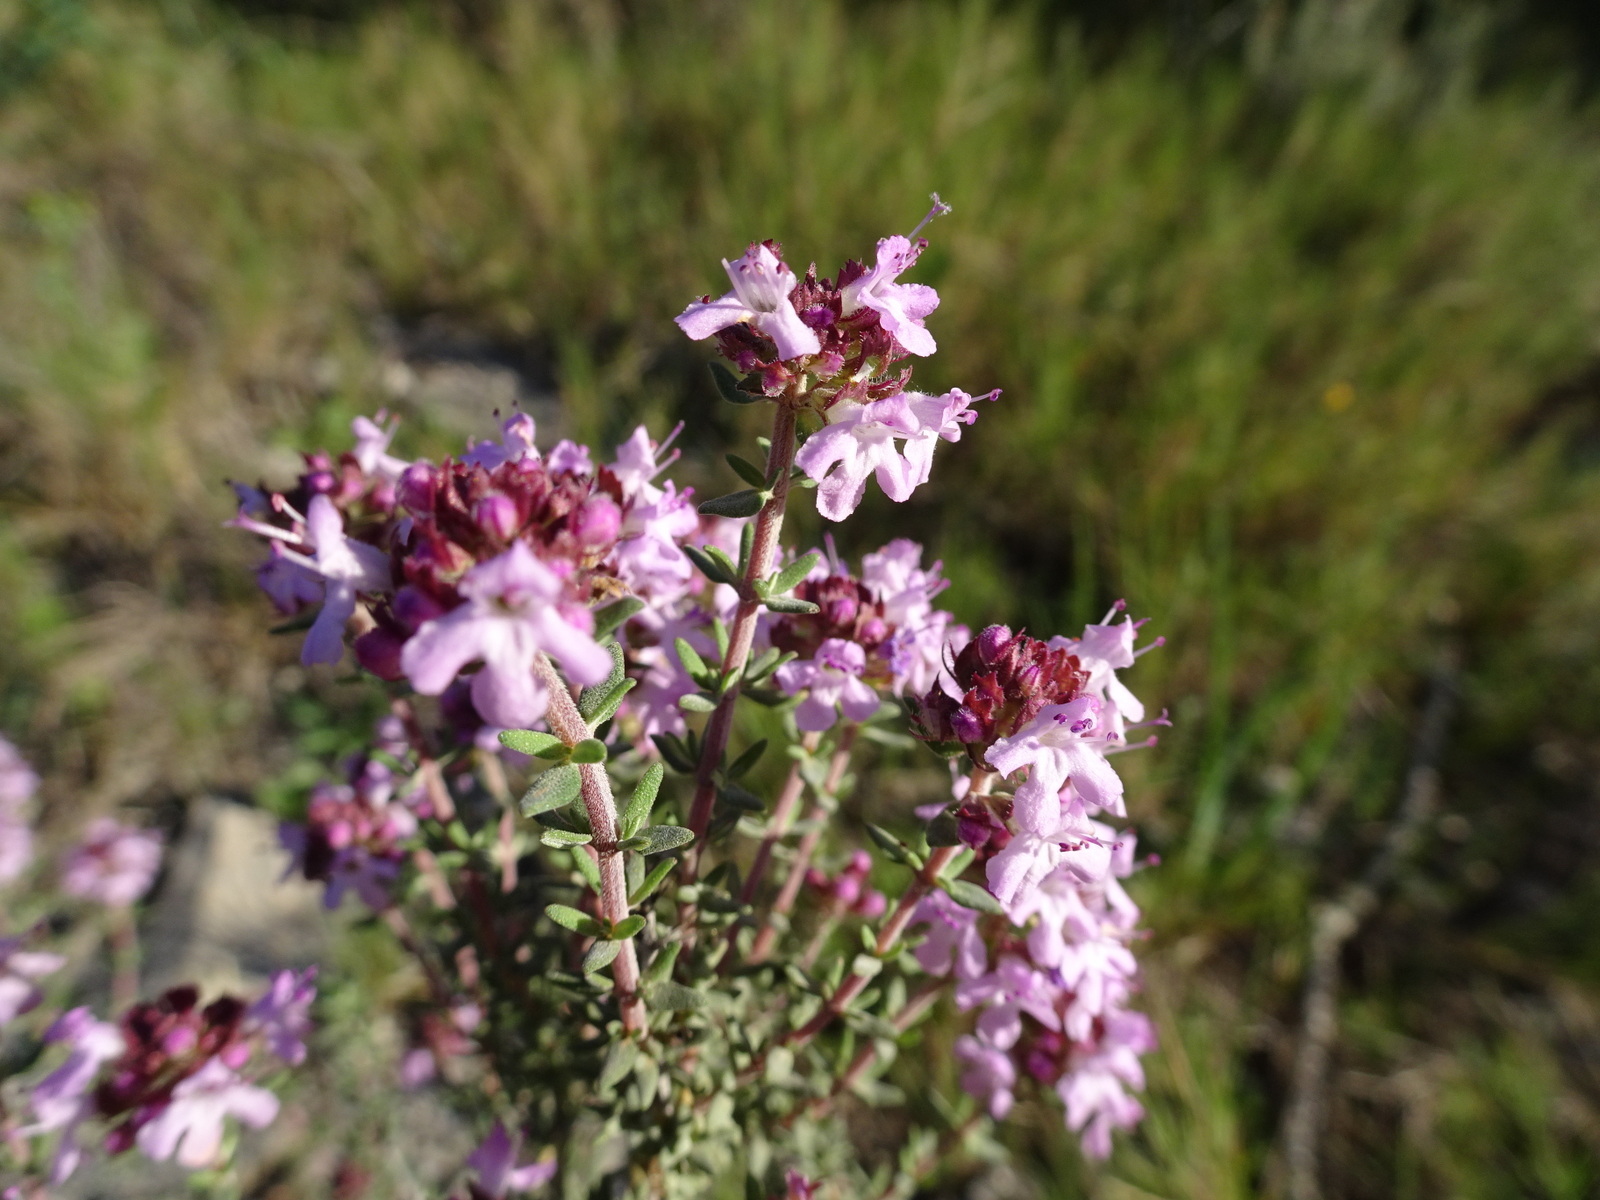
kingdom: Plantae
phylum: Tracheophyta
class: Magnoliopsida
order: Lamiales
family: Lamiaceae
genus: Thymus
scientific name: Thymus vulgaris
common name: Garden thyme
